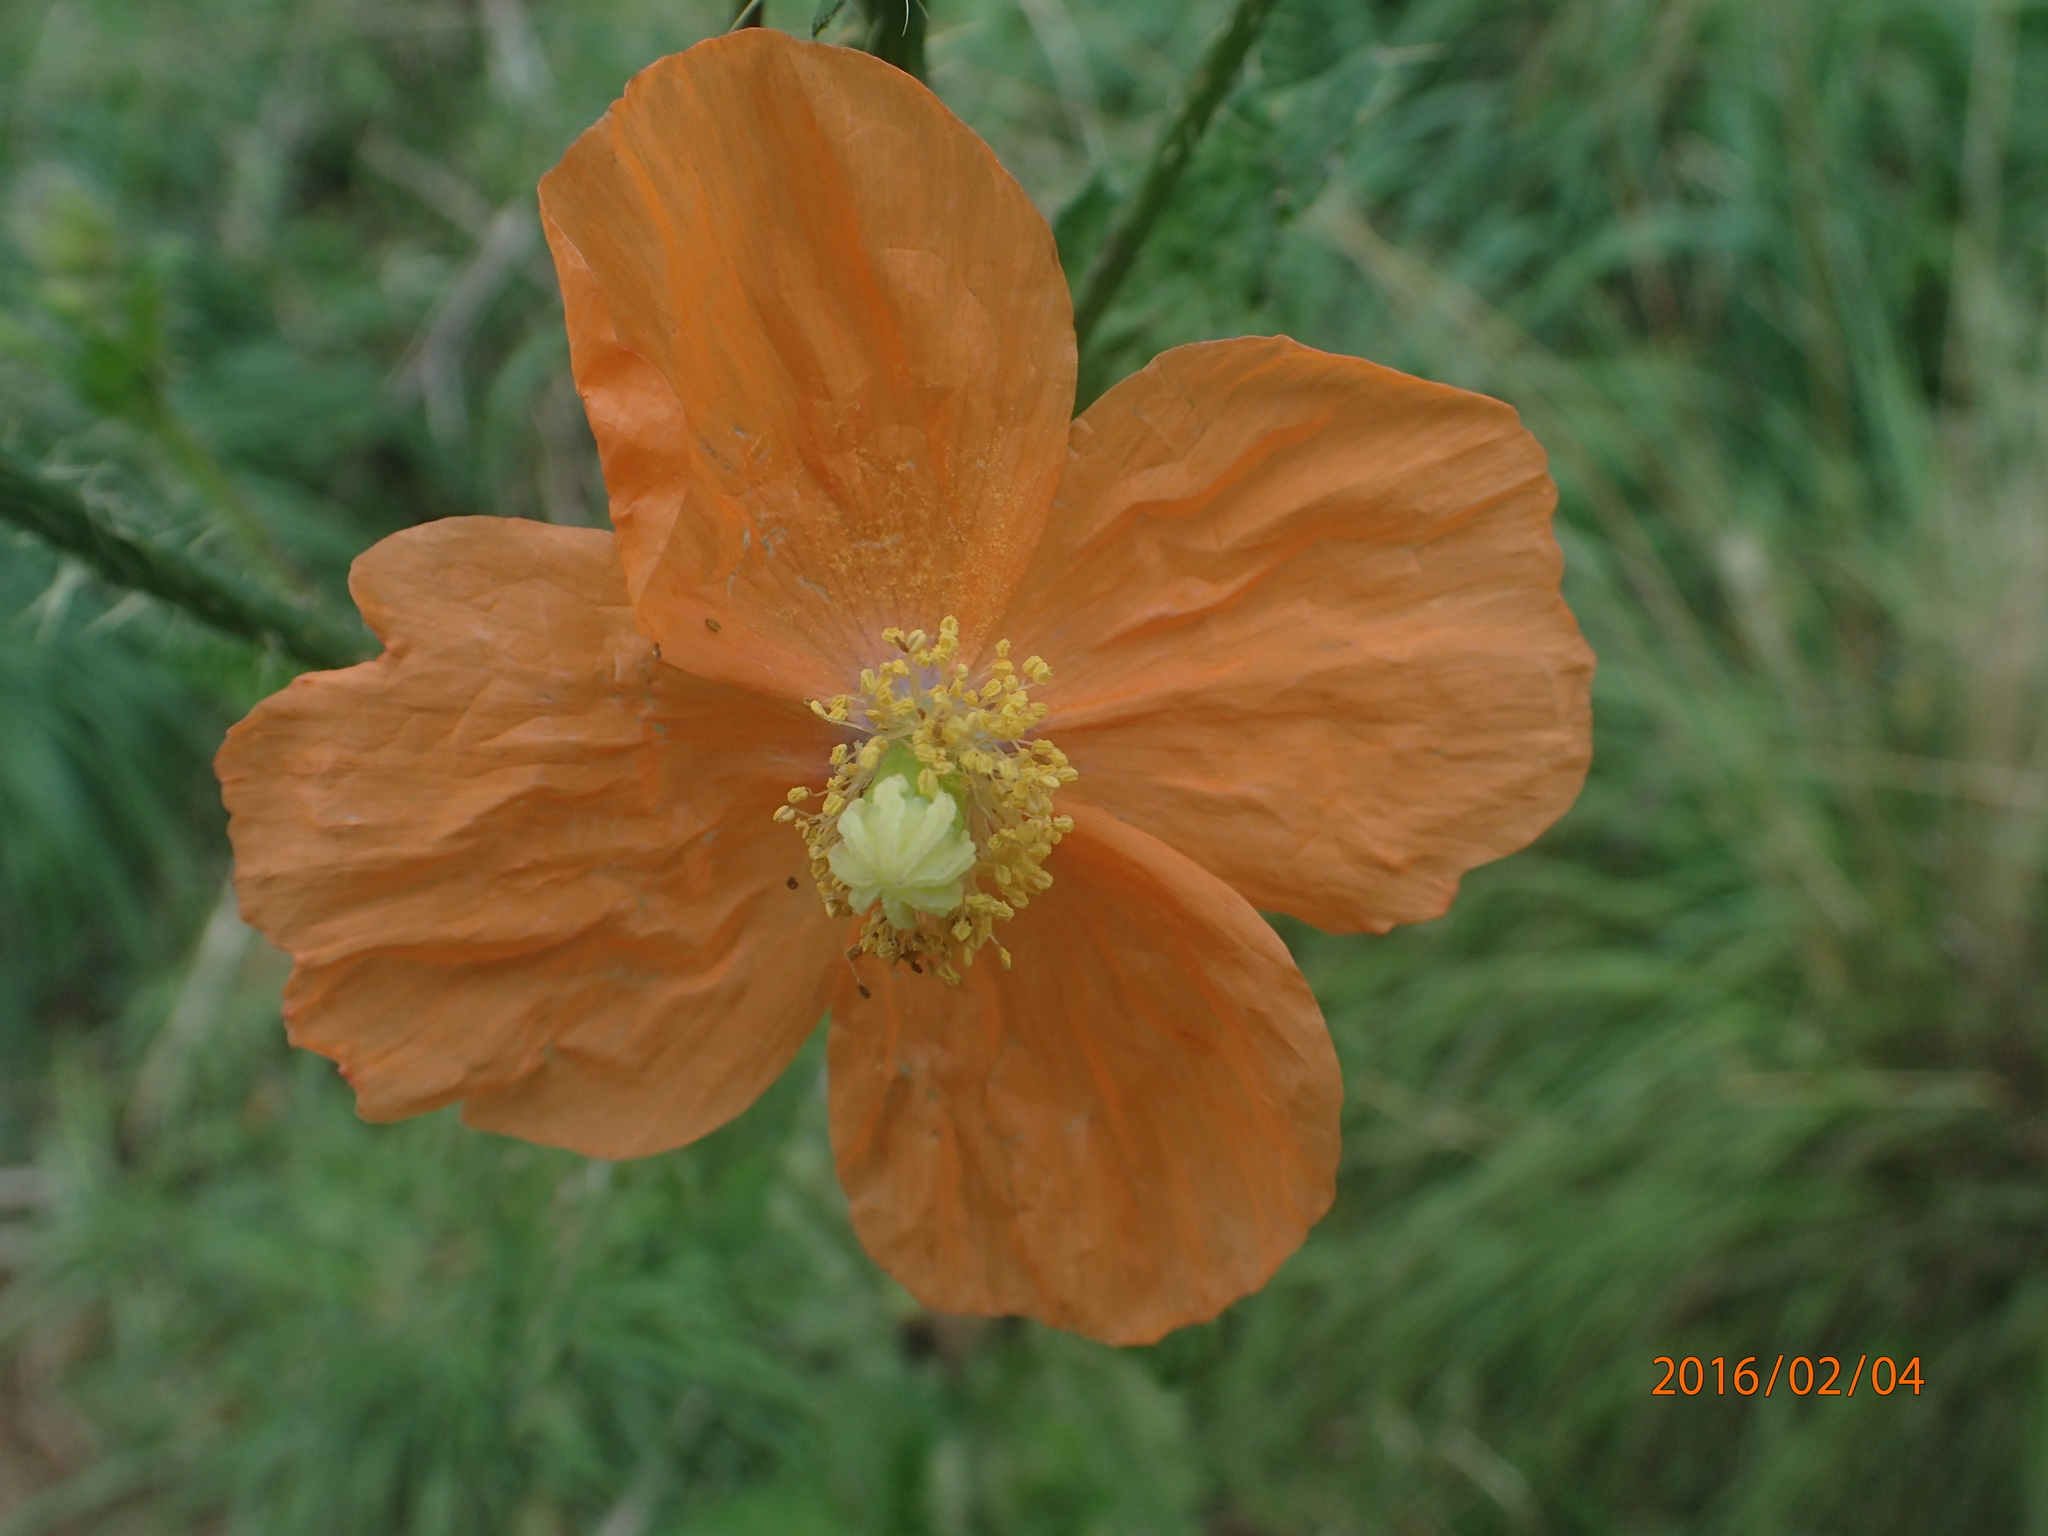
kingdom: Plantae
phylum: Tracheophyta
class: Magnoliopsida
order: Ranunculales
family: Papaveraceae
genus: Papaver
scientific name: Papaver aculeatum
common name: Bristle poppy
